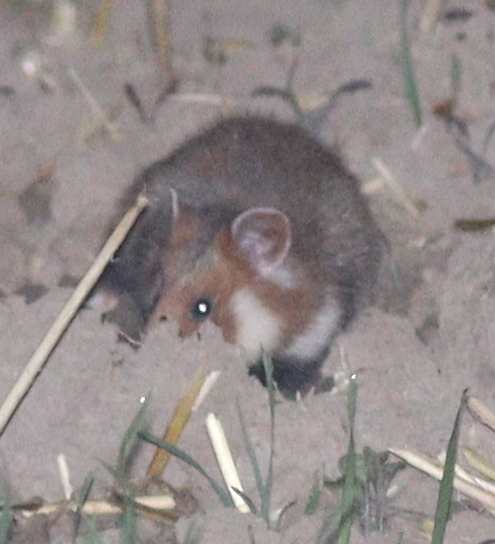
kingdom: Animalia
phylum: Chordata
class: Mammalia
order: Rodentia
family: Cricetidae
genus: Cricetus
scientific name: Cricetus cricetus
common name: Common hamster
